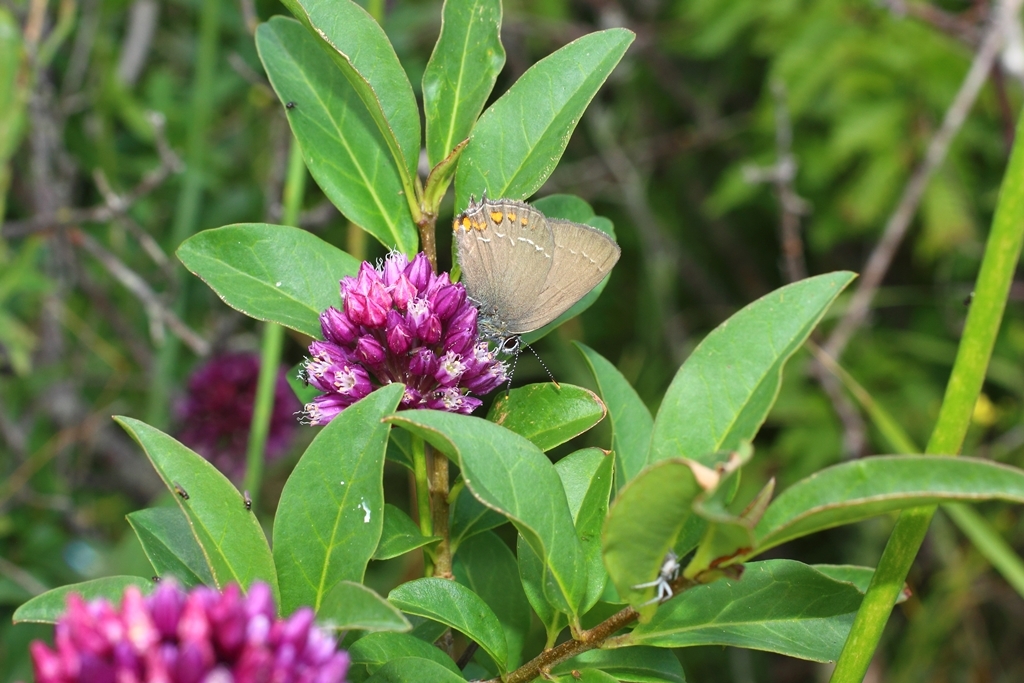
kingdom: Animalia
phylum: Arthropoda
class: Insecta
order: Lepidoptera
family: Lycaenidae
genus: Nordmannia
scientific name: Nordmannia ilicis
